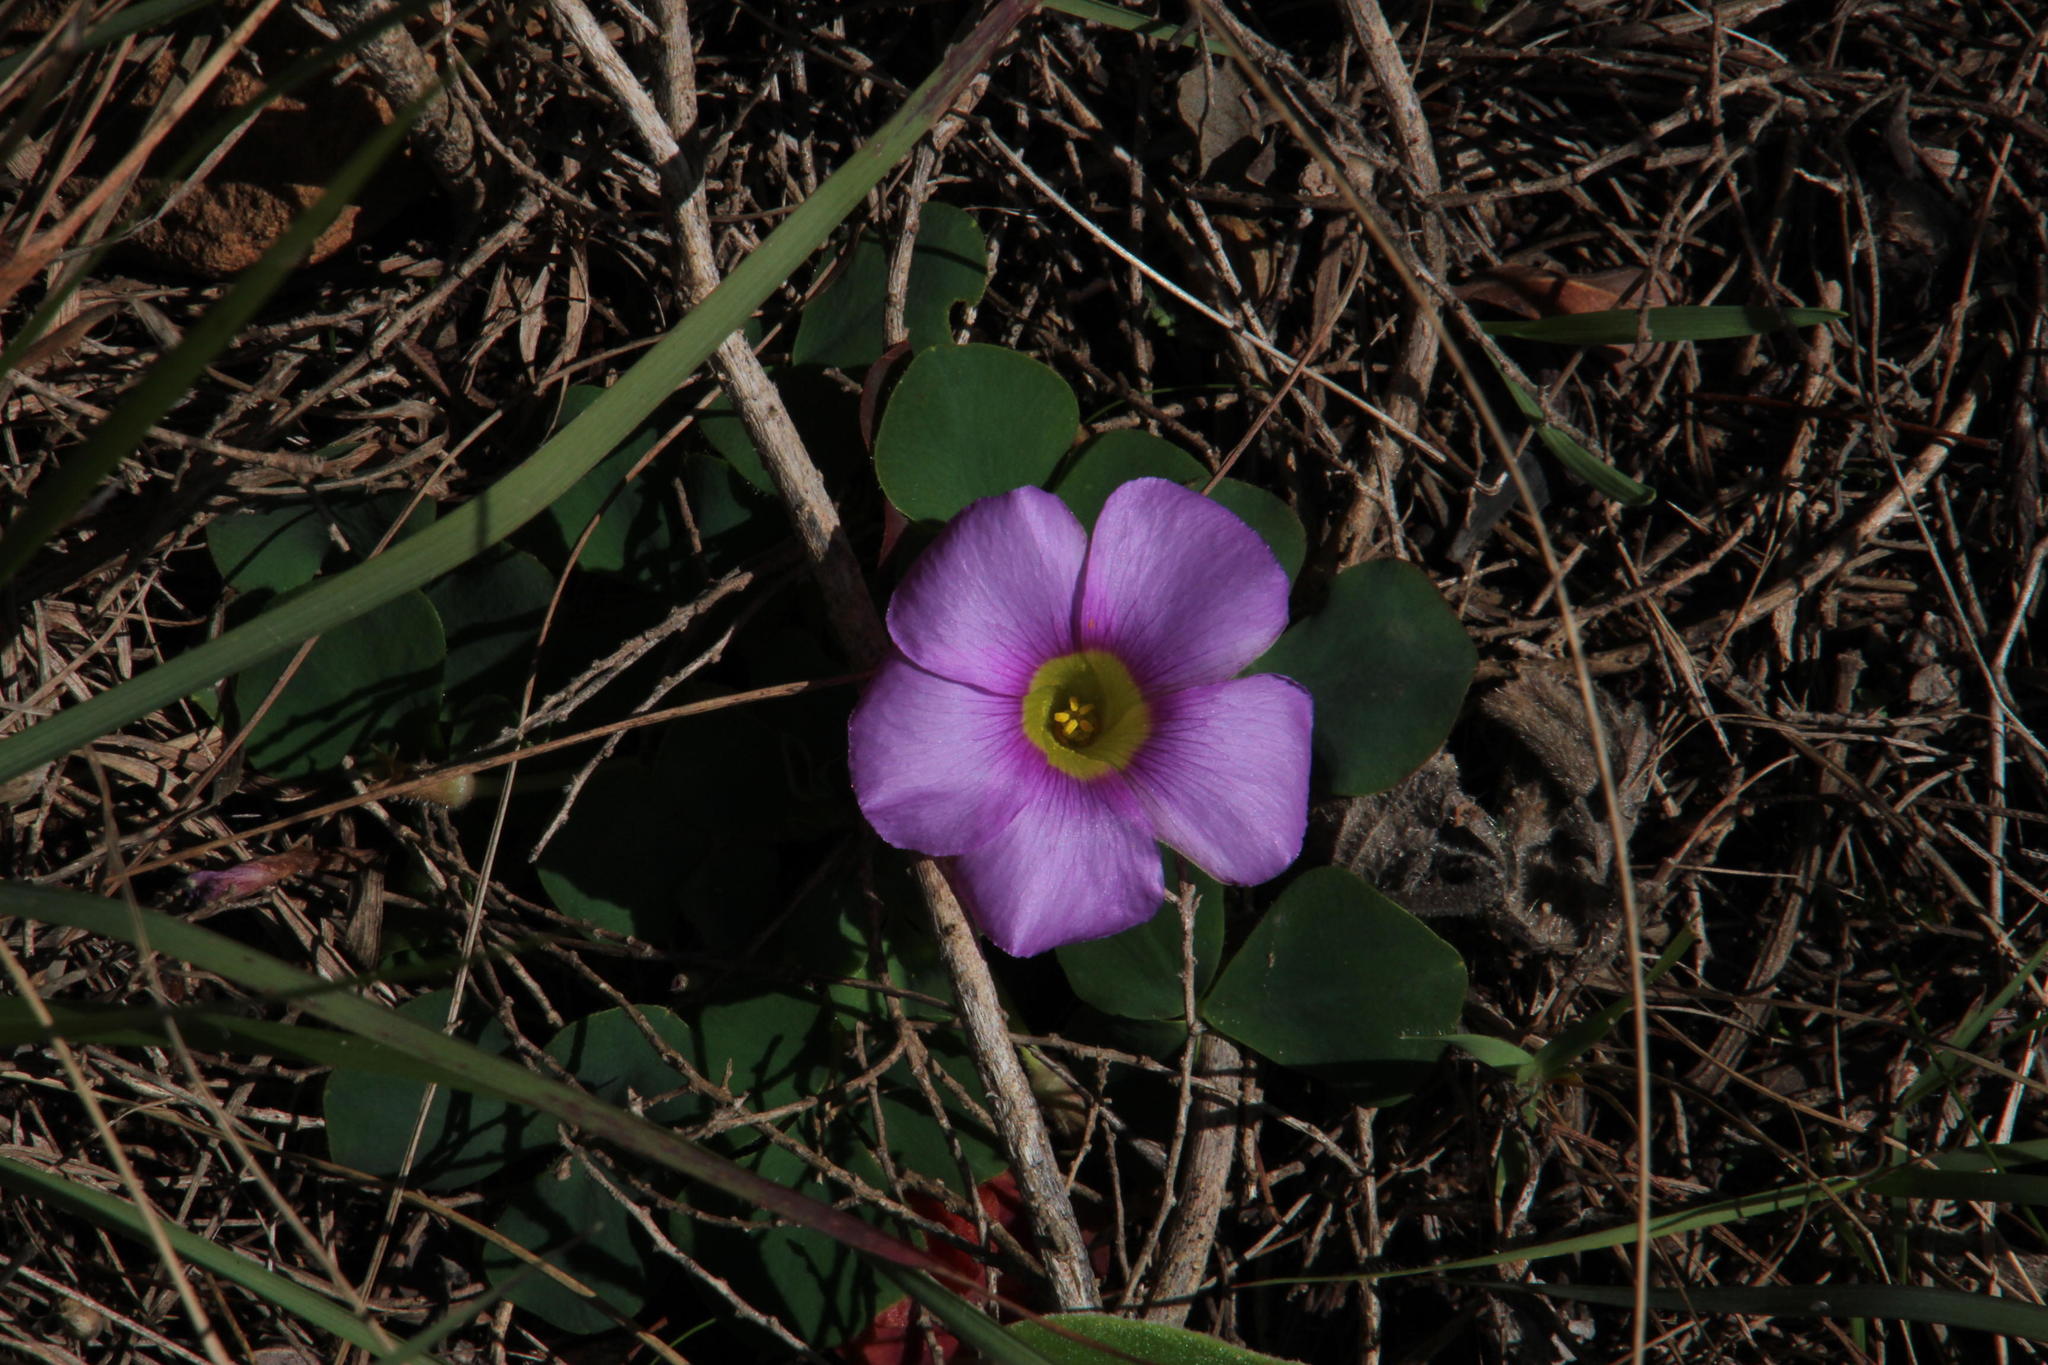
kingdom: Plantae
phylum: Tracheophyta
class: Magnoliopsida
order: Oxalidales
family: Oxalidaceae
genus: Oxalis
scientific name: Oxalis purpurea
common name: Purple woodsorrel
